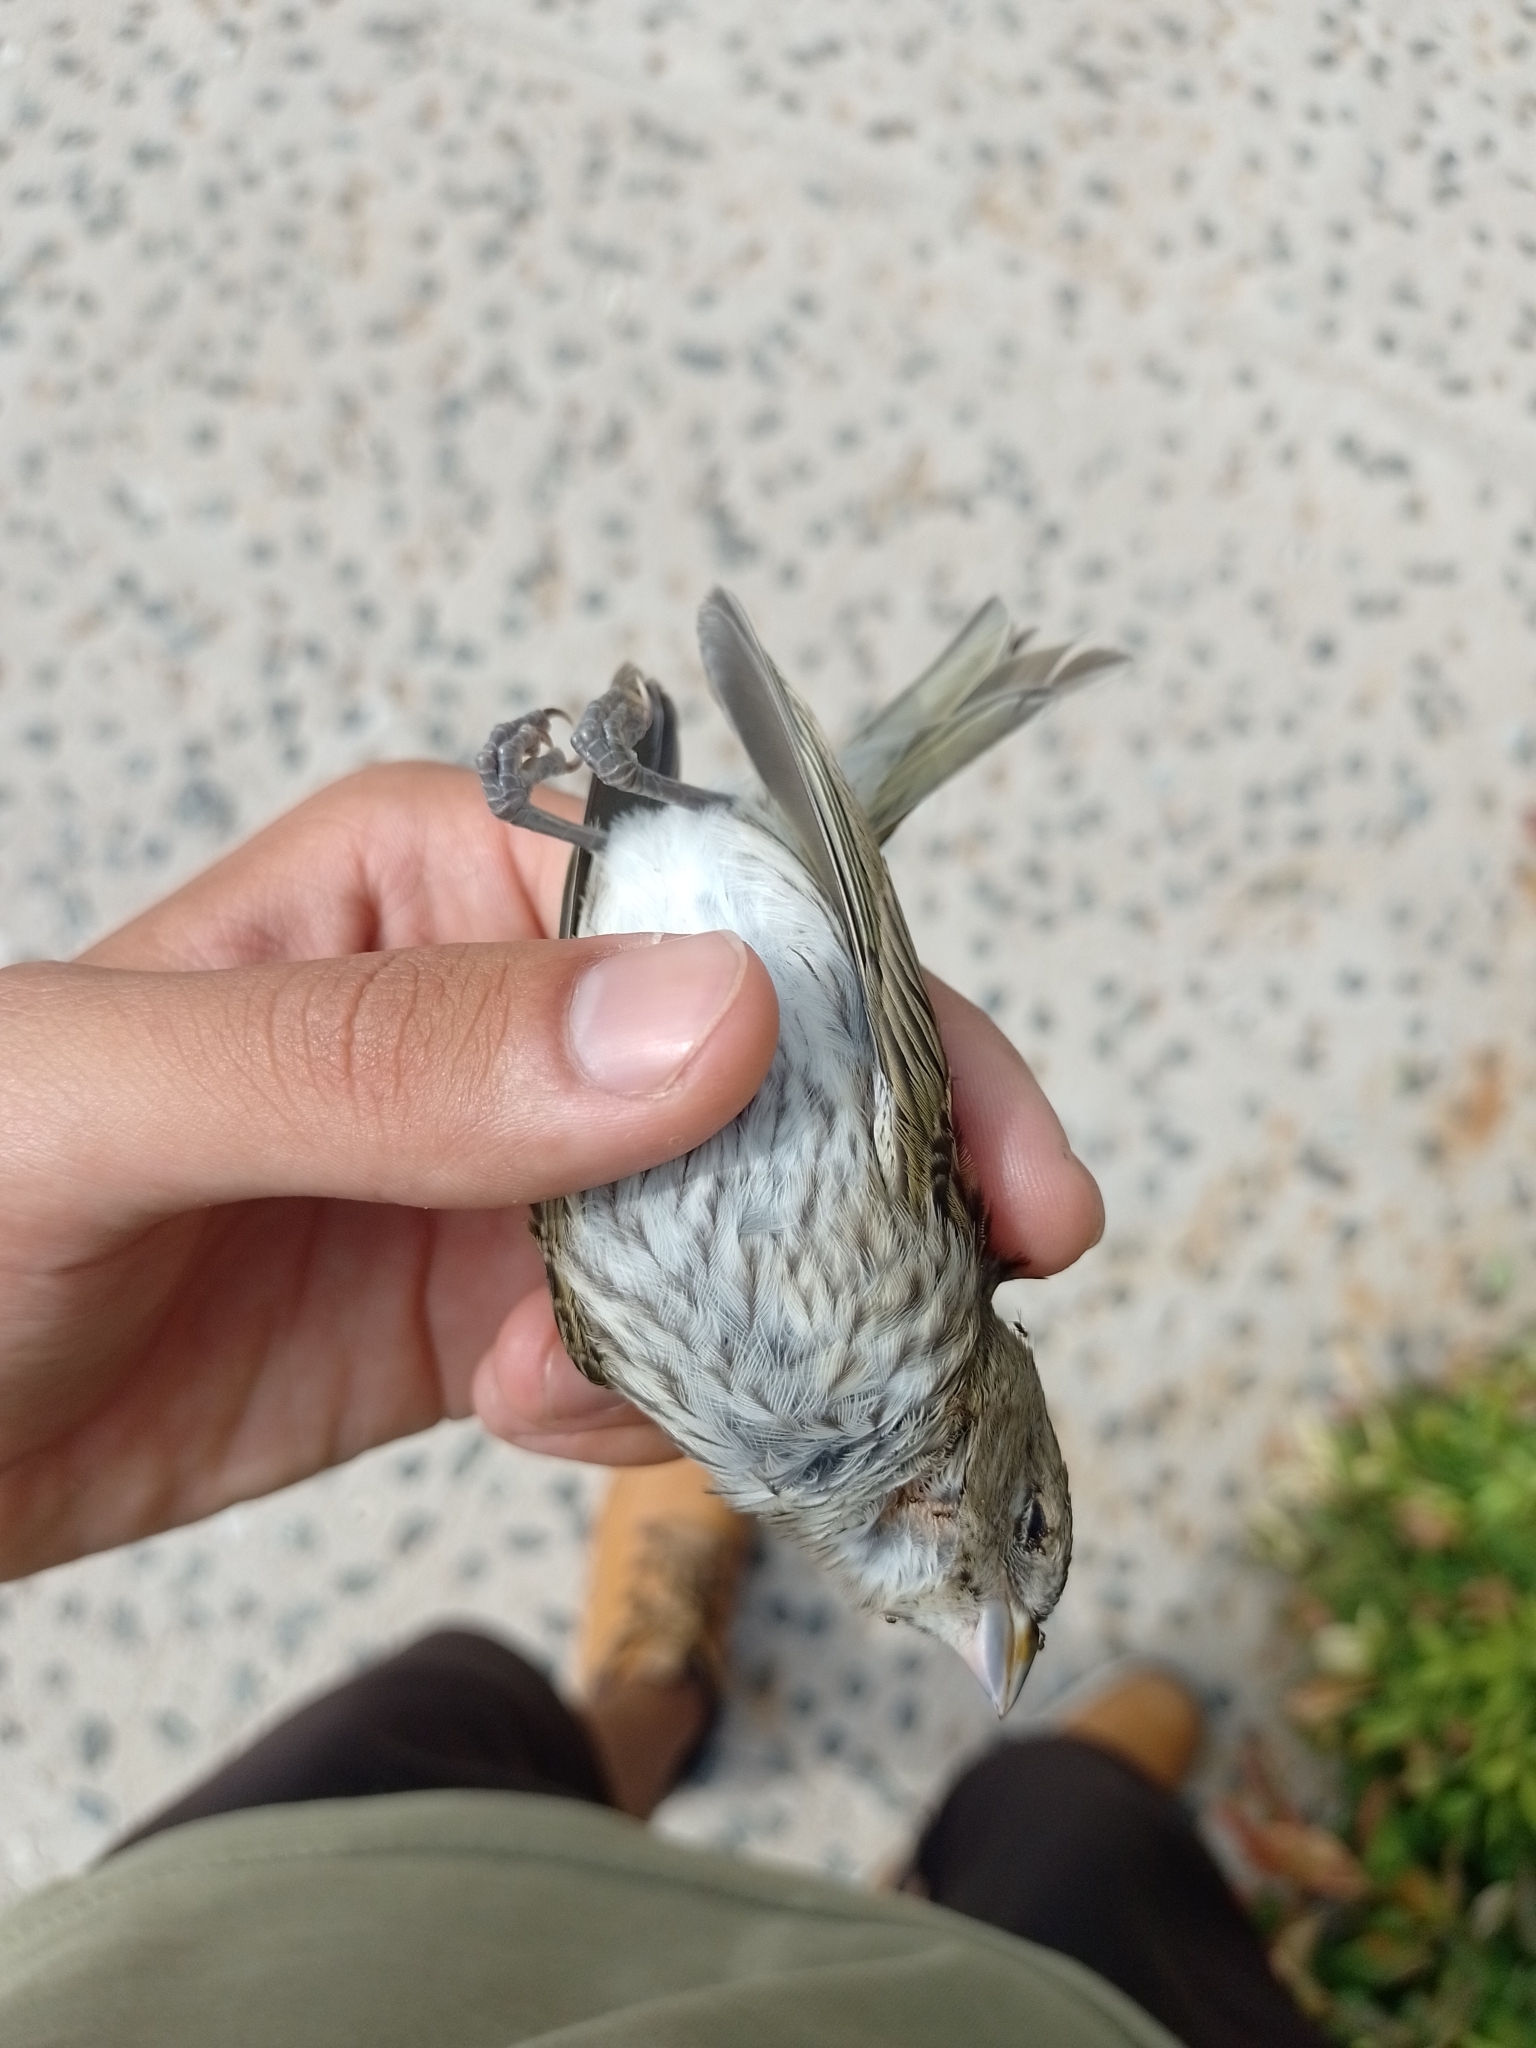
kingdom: Animalia
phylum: Chordata
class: Aves
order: Passeriformes
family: Thraupidae
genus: Sicalis
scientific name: Sicalis flaveola
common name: Saffron finch
